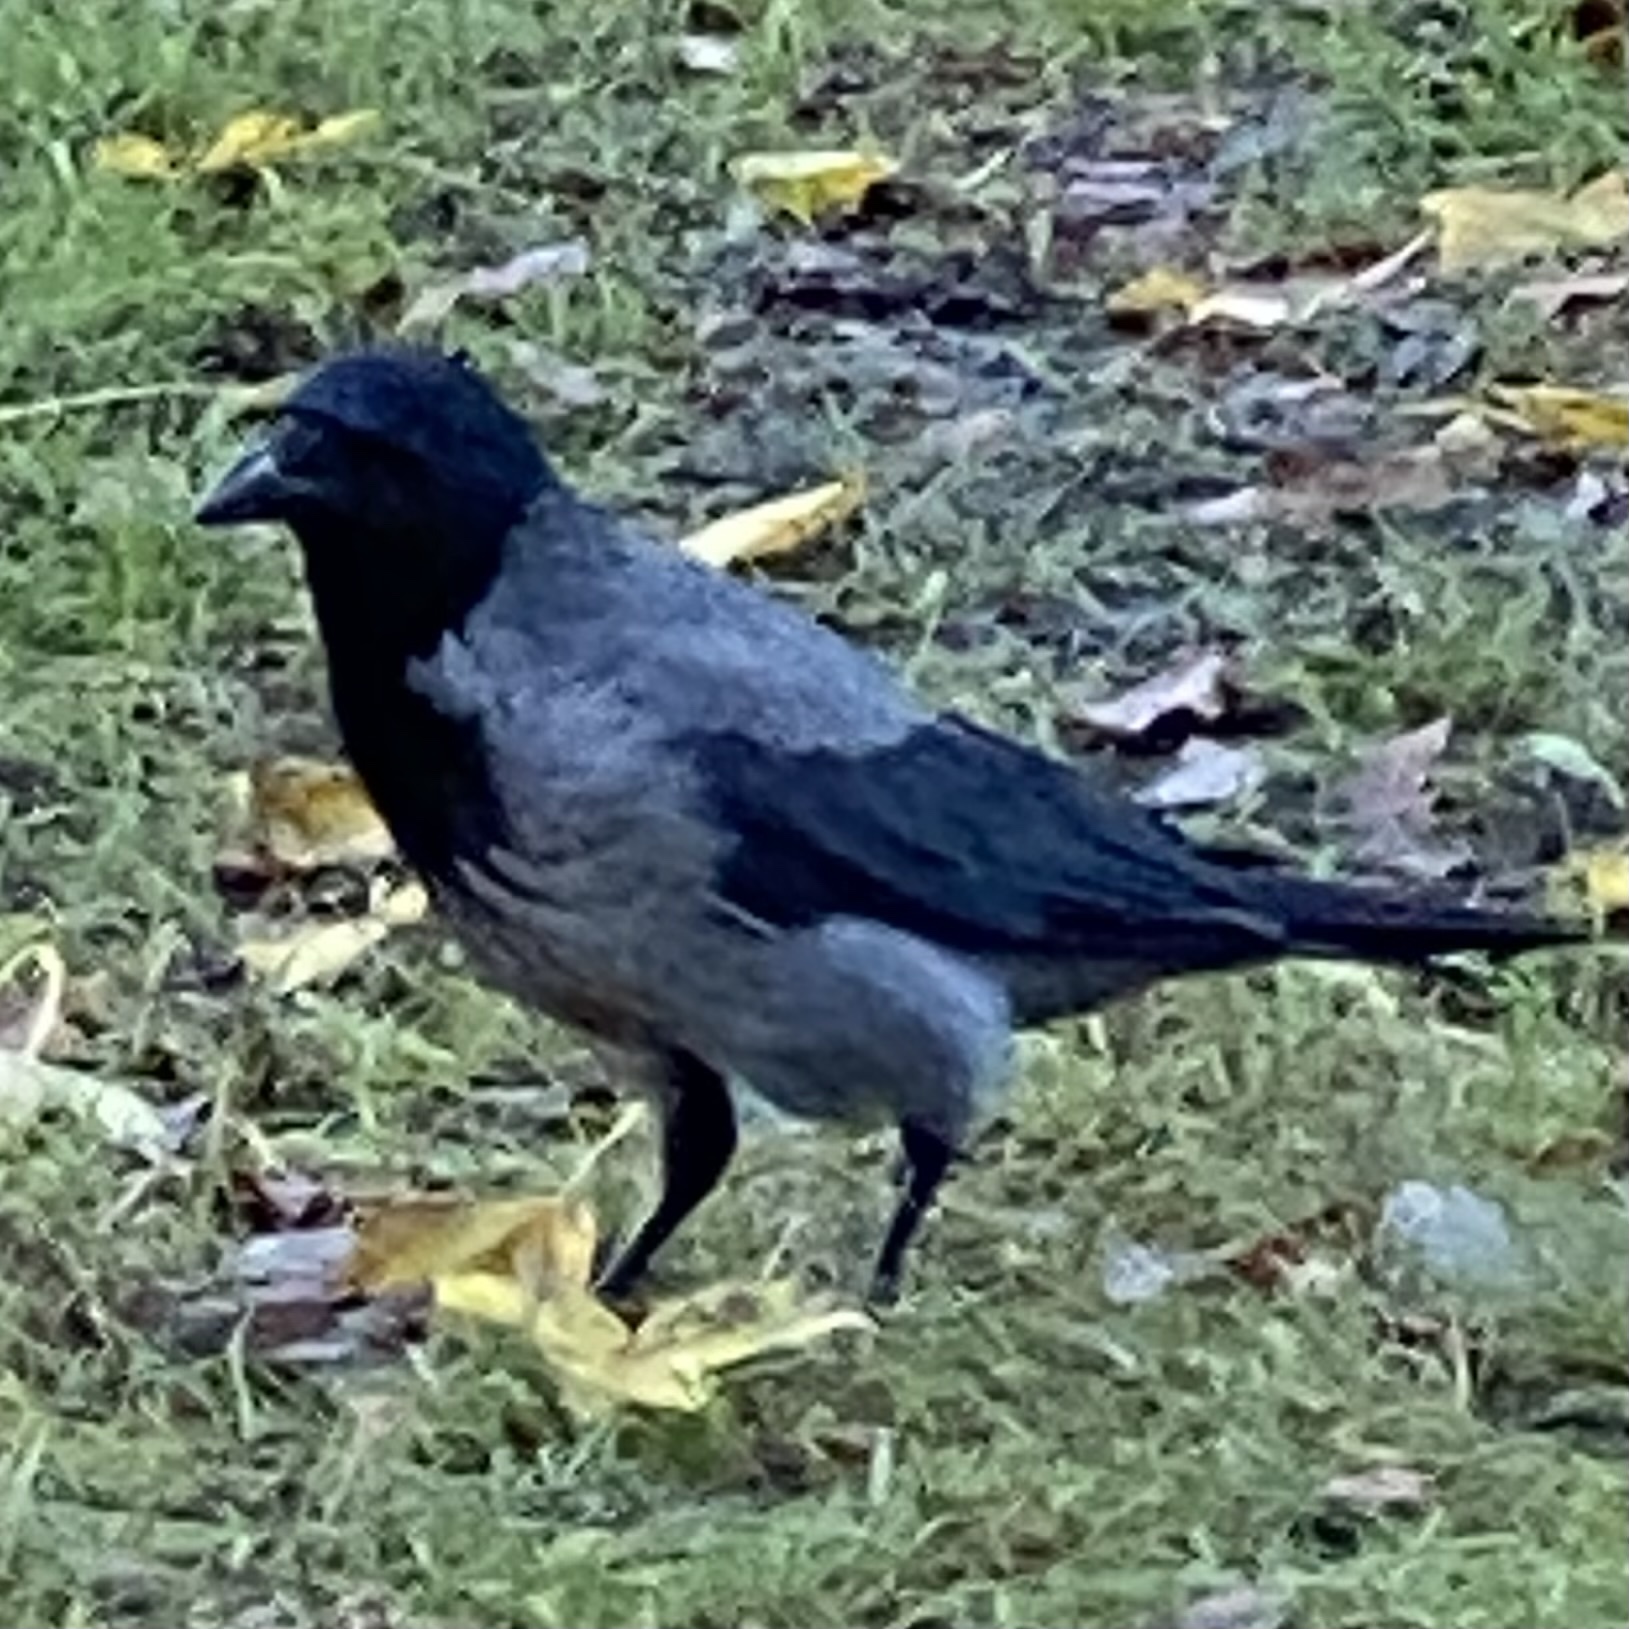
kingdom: Animalia
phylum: Chordata
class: Aves
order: Passeriformes
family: Corvidae
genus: Corvus
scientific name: Corvus cornix
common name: Hooded crow
